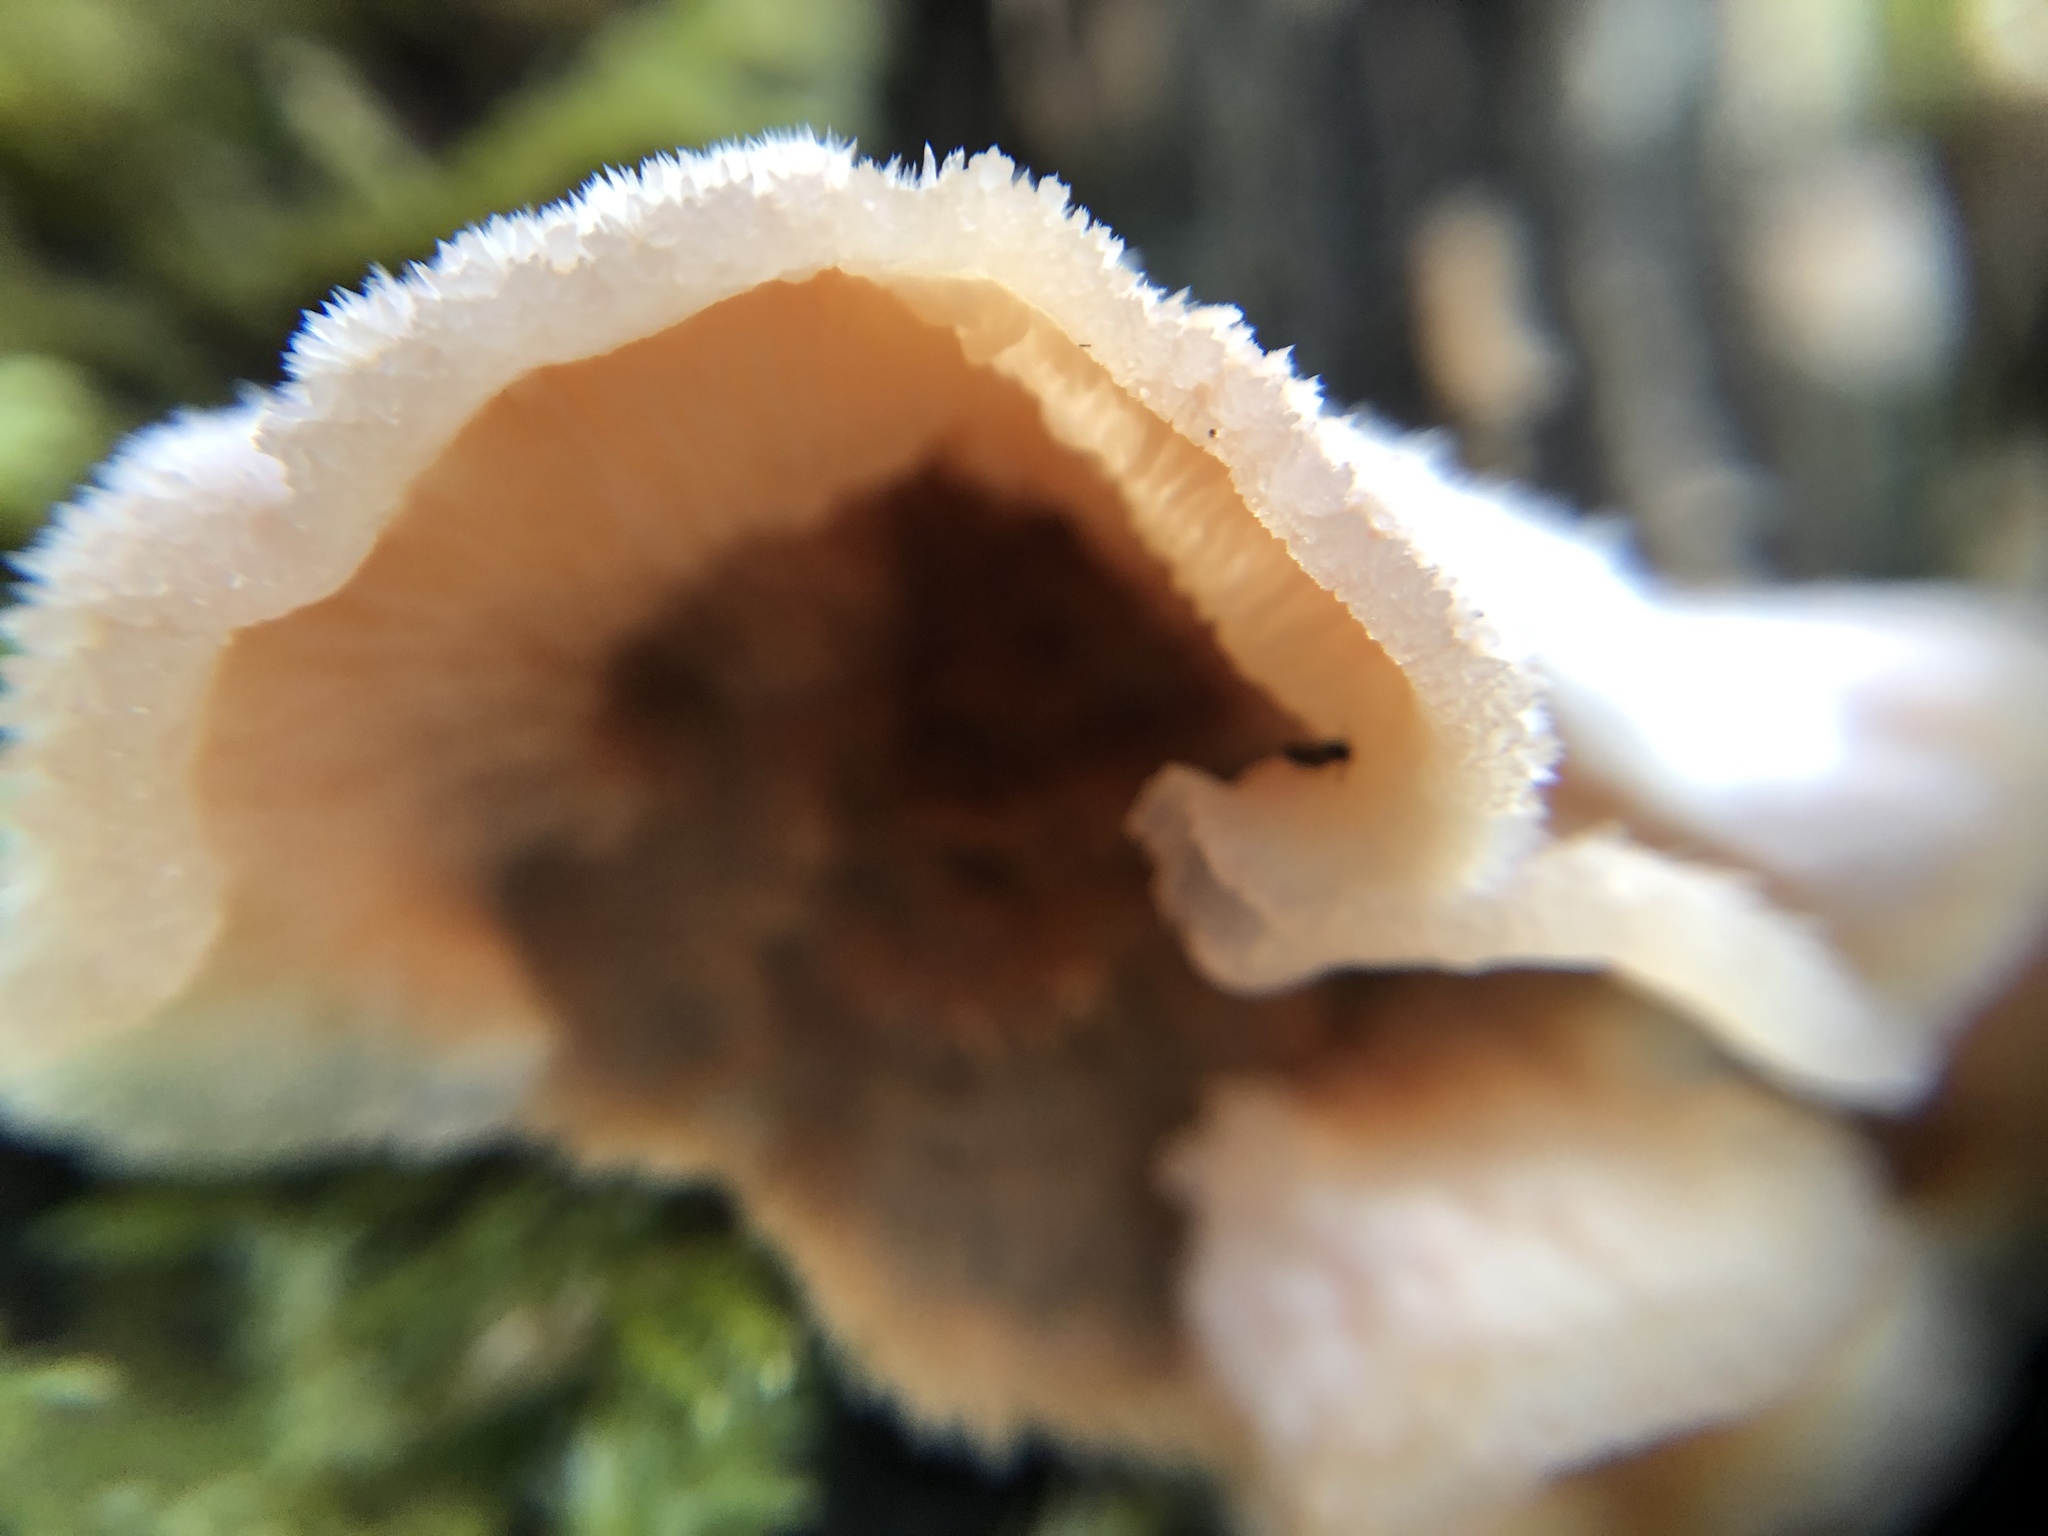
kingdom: Fungi
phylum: Basidiomycota
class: Agaricomycetes
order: Polyporales
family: Meruliaceae
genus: Phlebia
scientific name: Phlebia tremellosa
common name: Jelly rot
